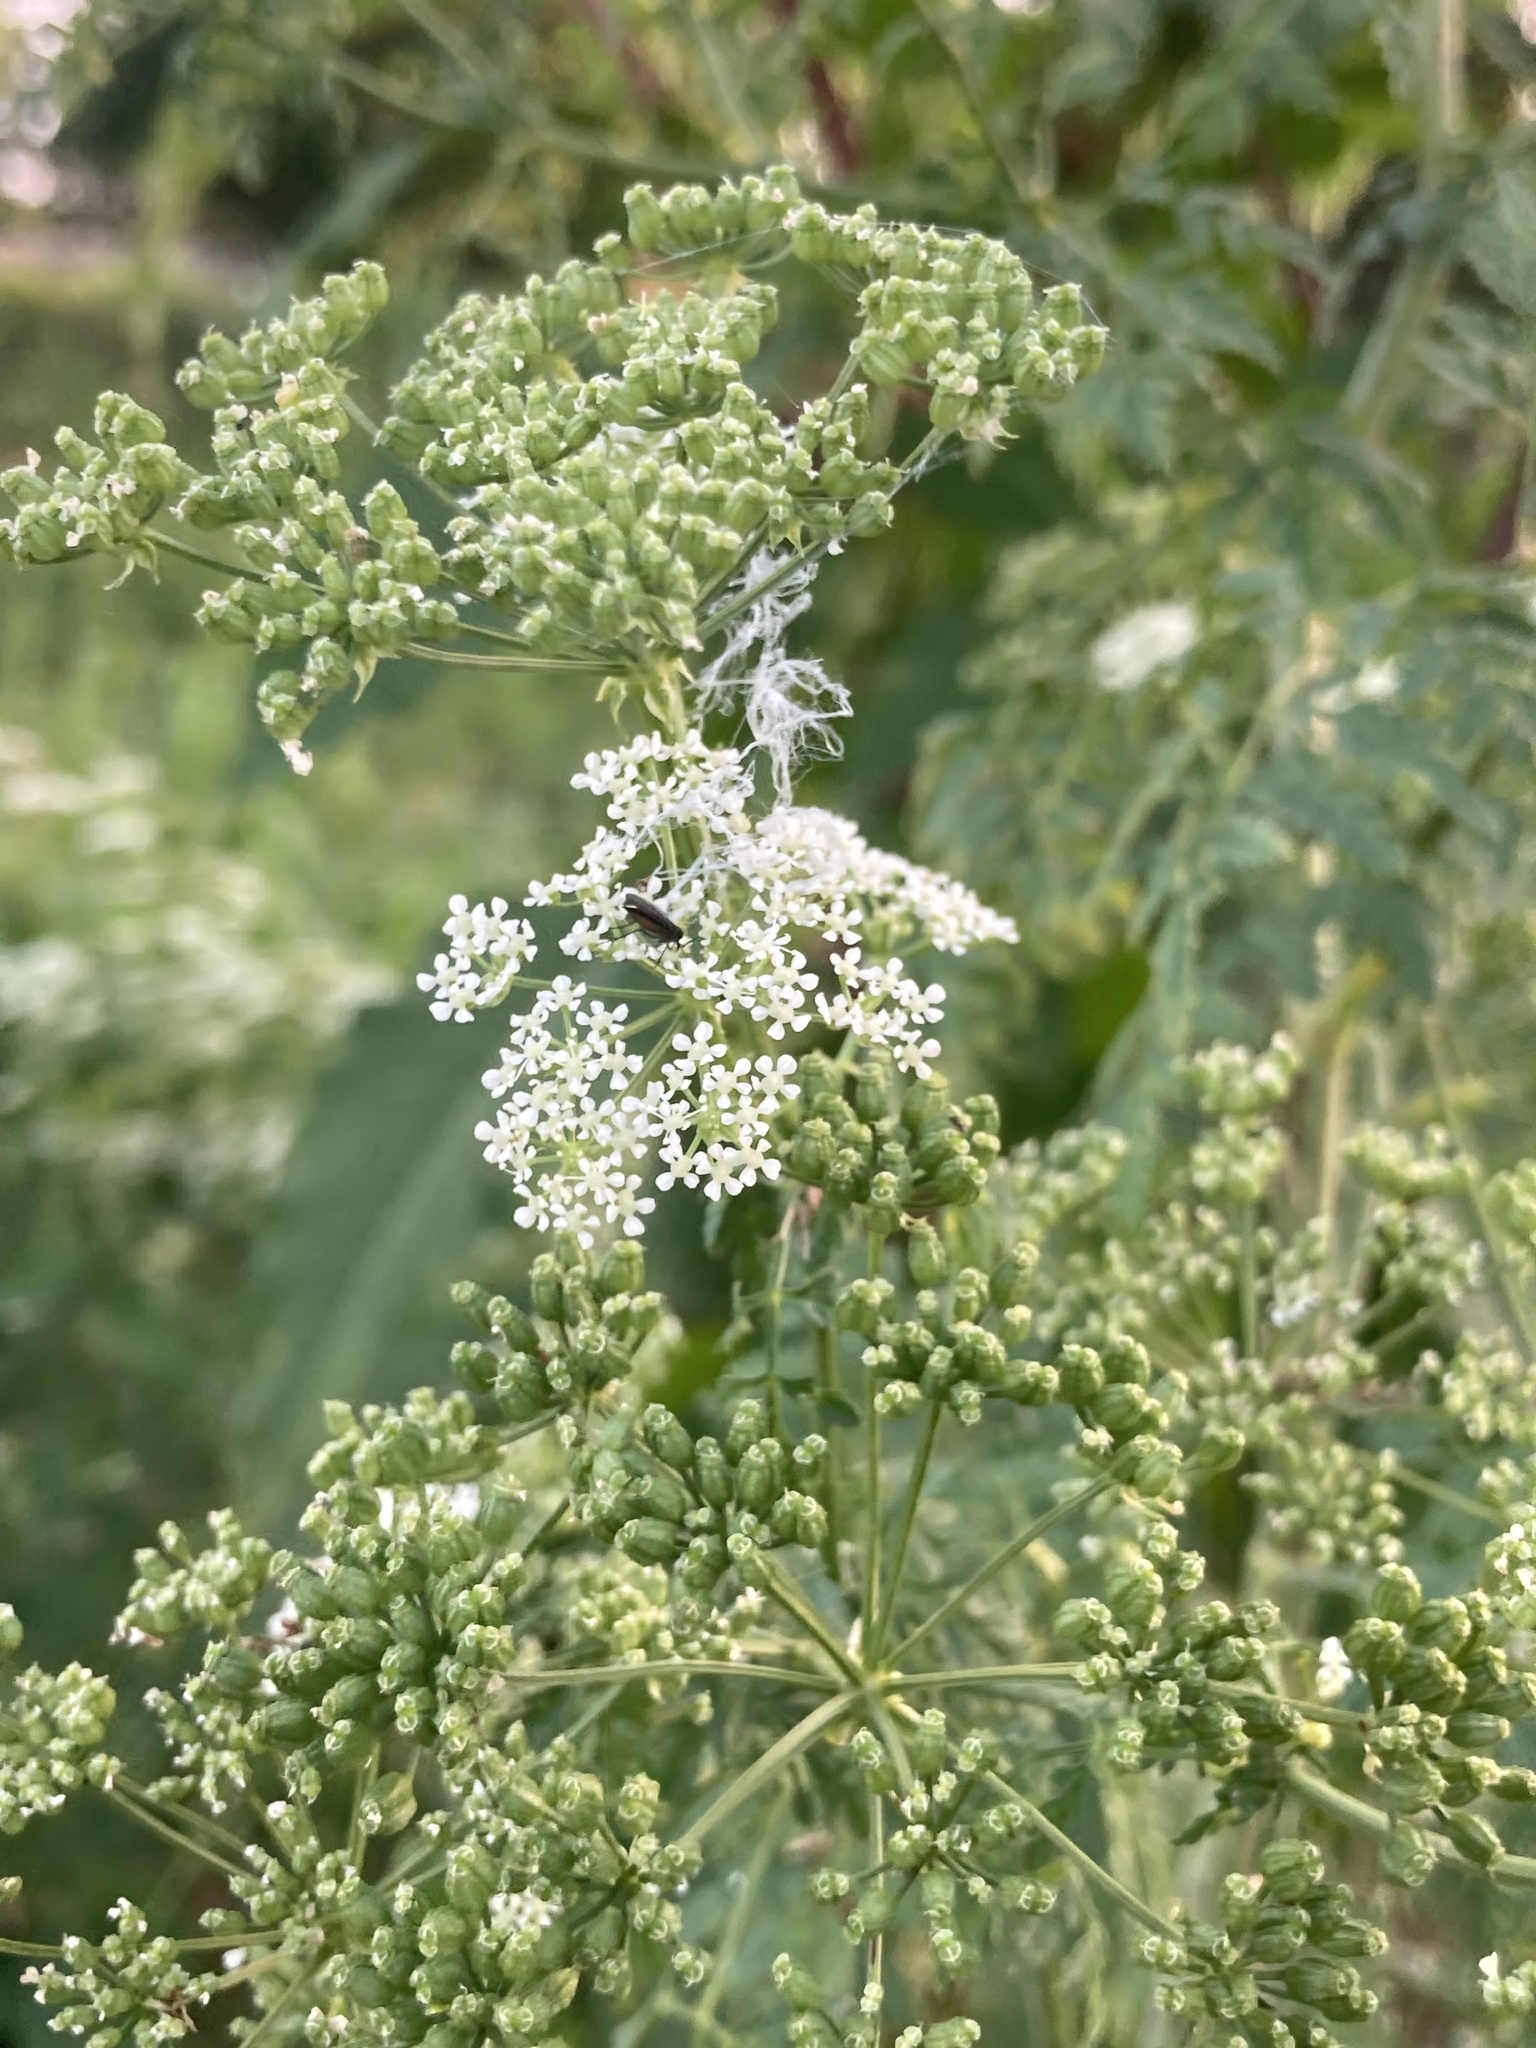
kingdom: Plantae
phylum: Tracheophyta
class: Magnoliopsida
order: Apiales
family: Apiaceae
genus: Conium
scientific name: Conium maculatum
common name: Hemlock
